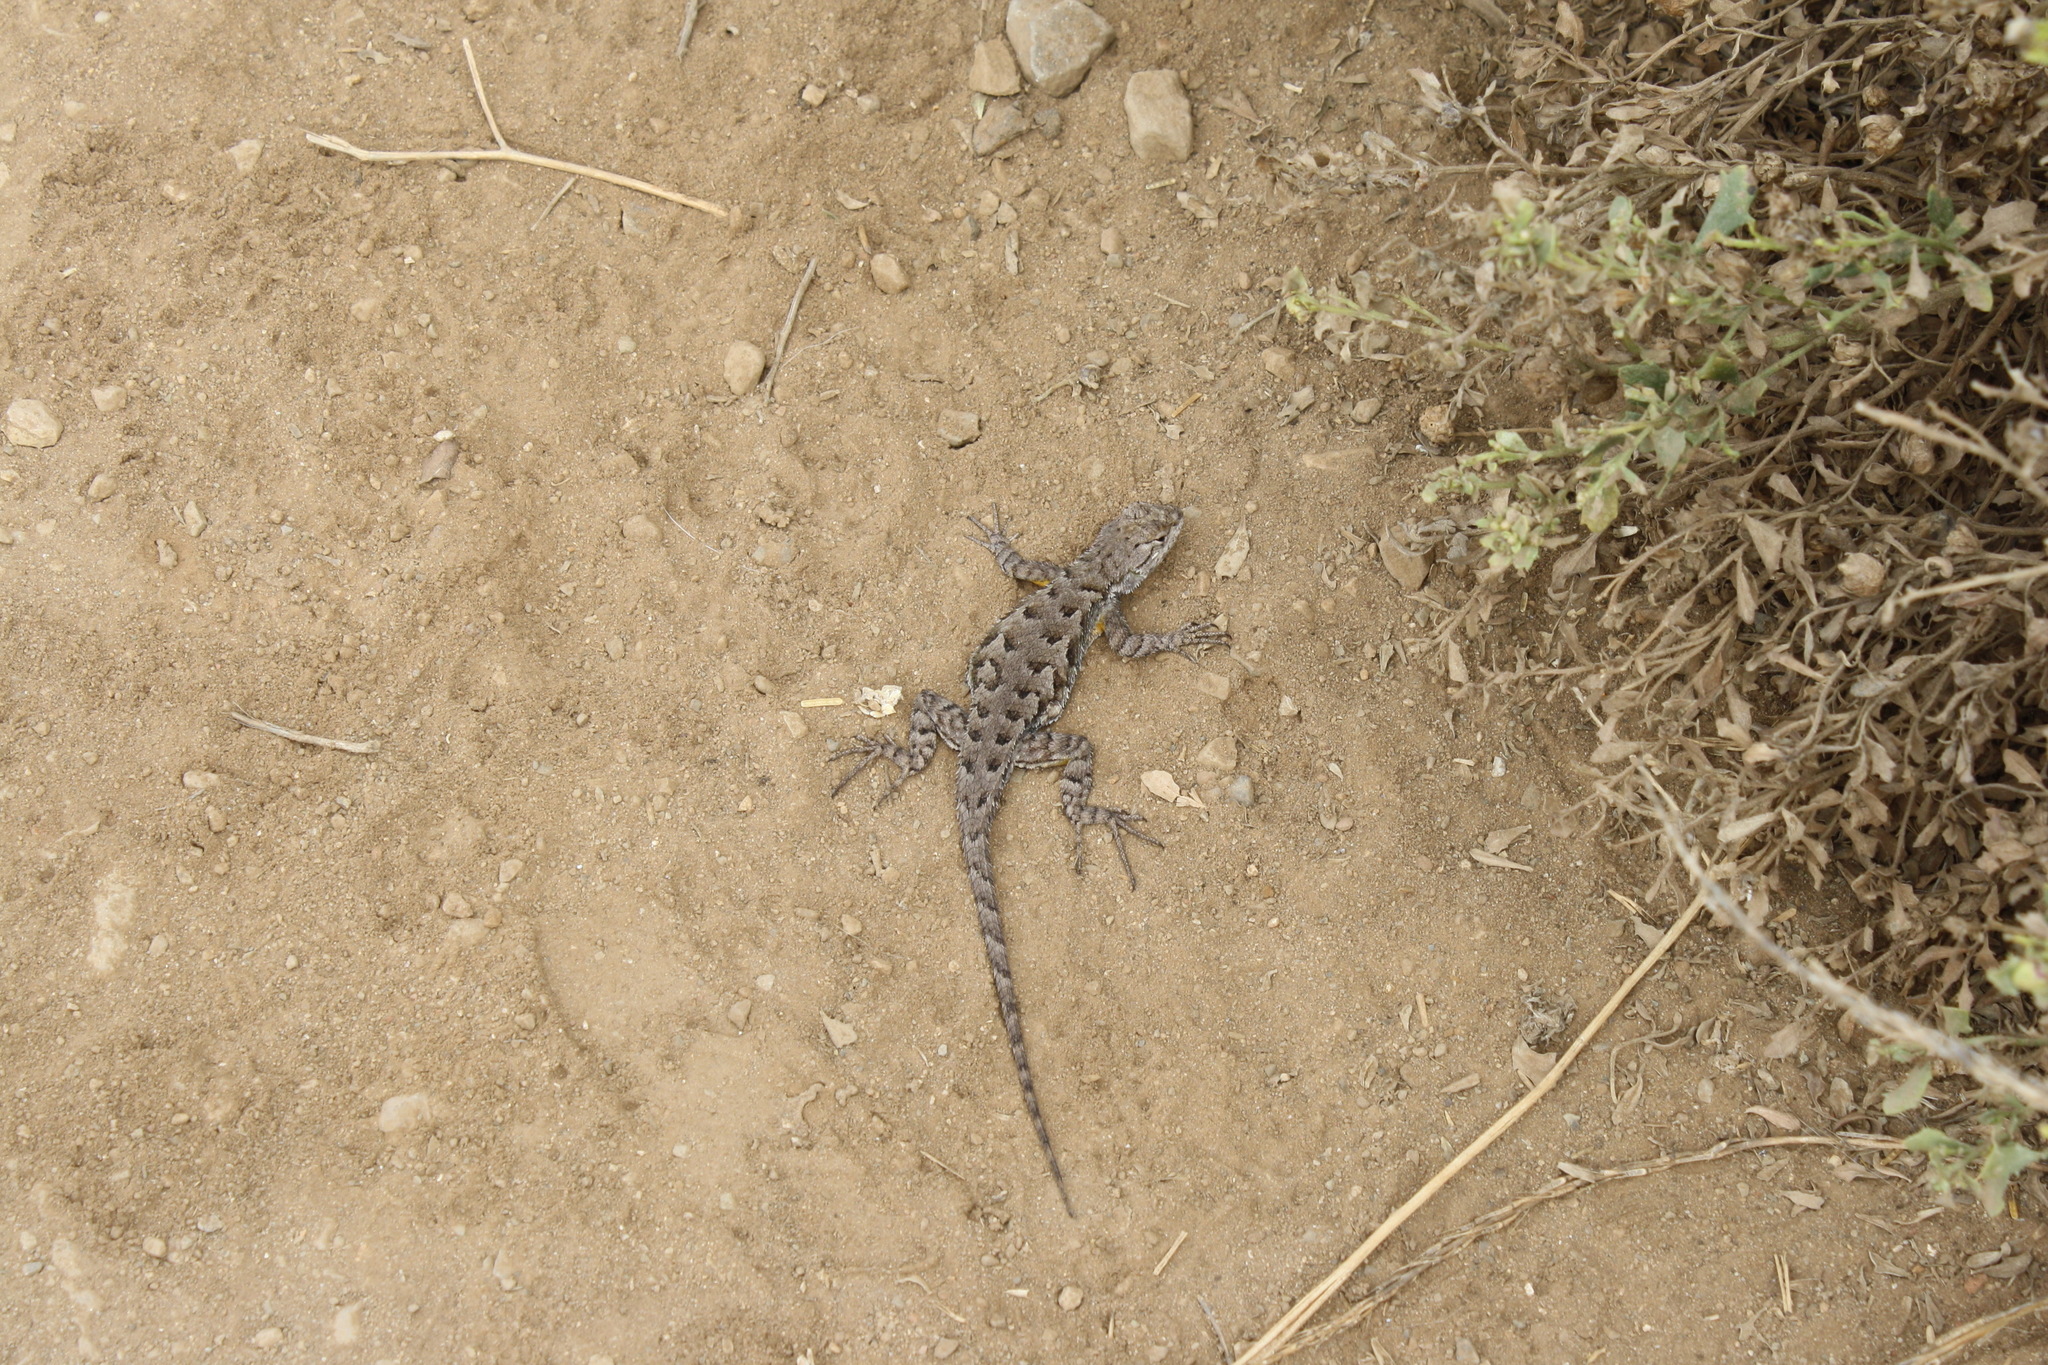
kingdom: Animalia
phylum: Chordata
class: Squamata
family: Phrynosomatidae
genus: Sceloporus
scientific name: Sceloporus occidentalis
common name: Western fence lizard
